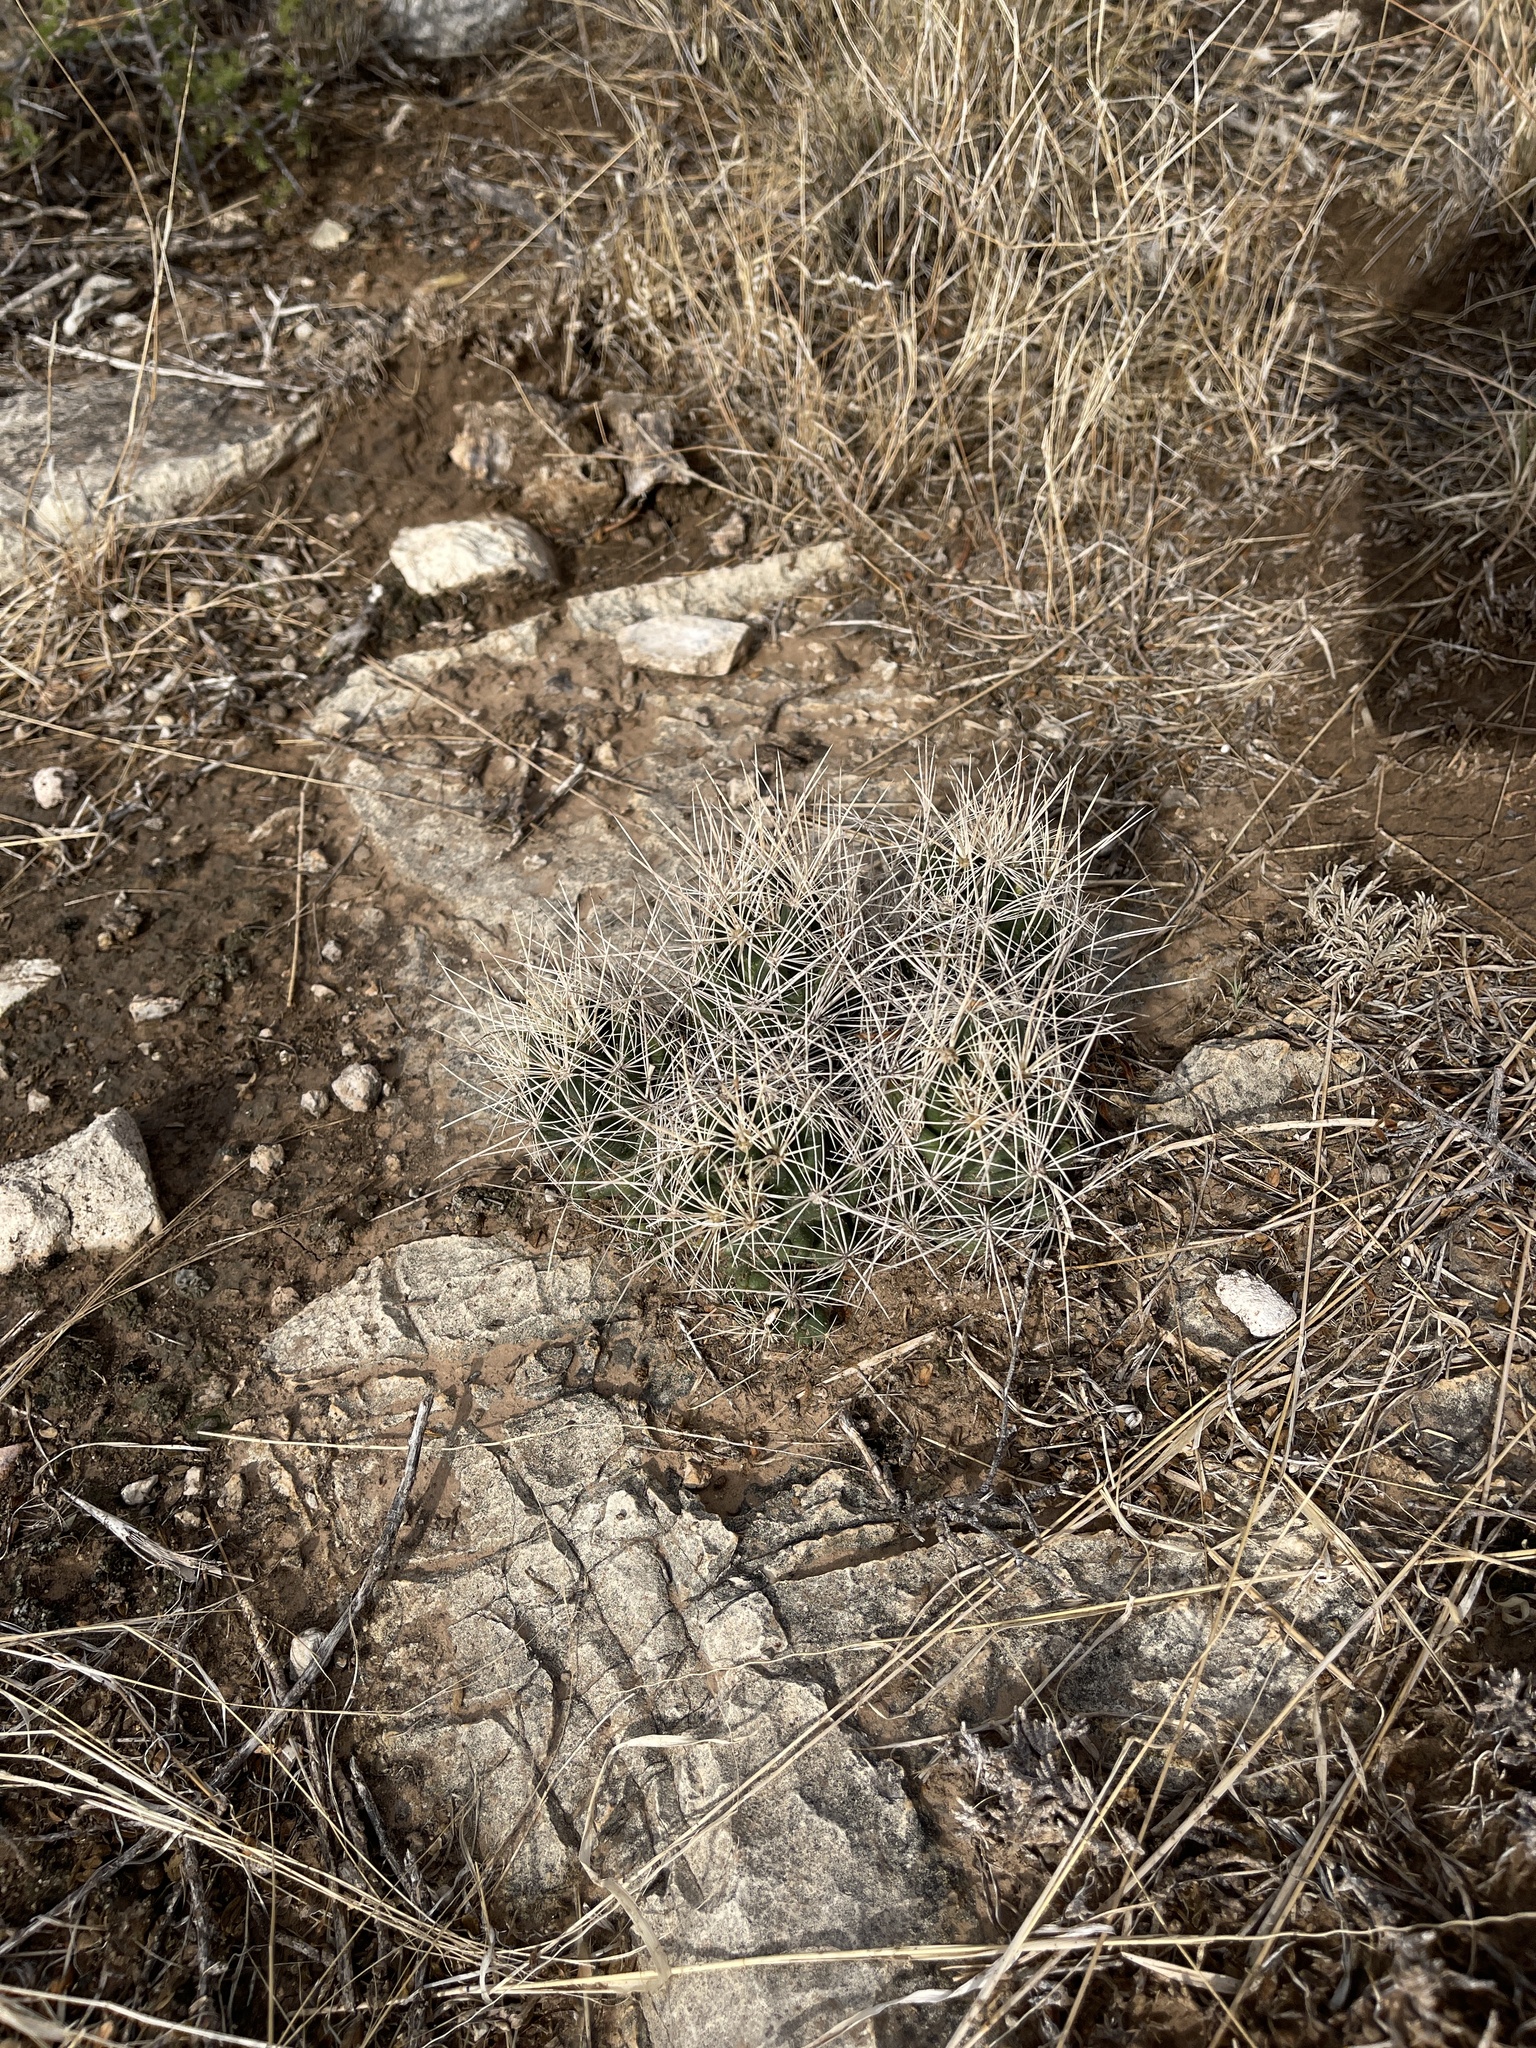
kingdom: Plantae
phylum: Tracheophyta
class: Magnoliopsida
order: Caryophyllales
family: Cactaceae
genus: Coryphantha
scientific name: Coryphantha macromeris
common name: Nipple beehive cactus
